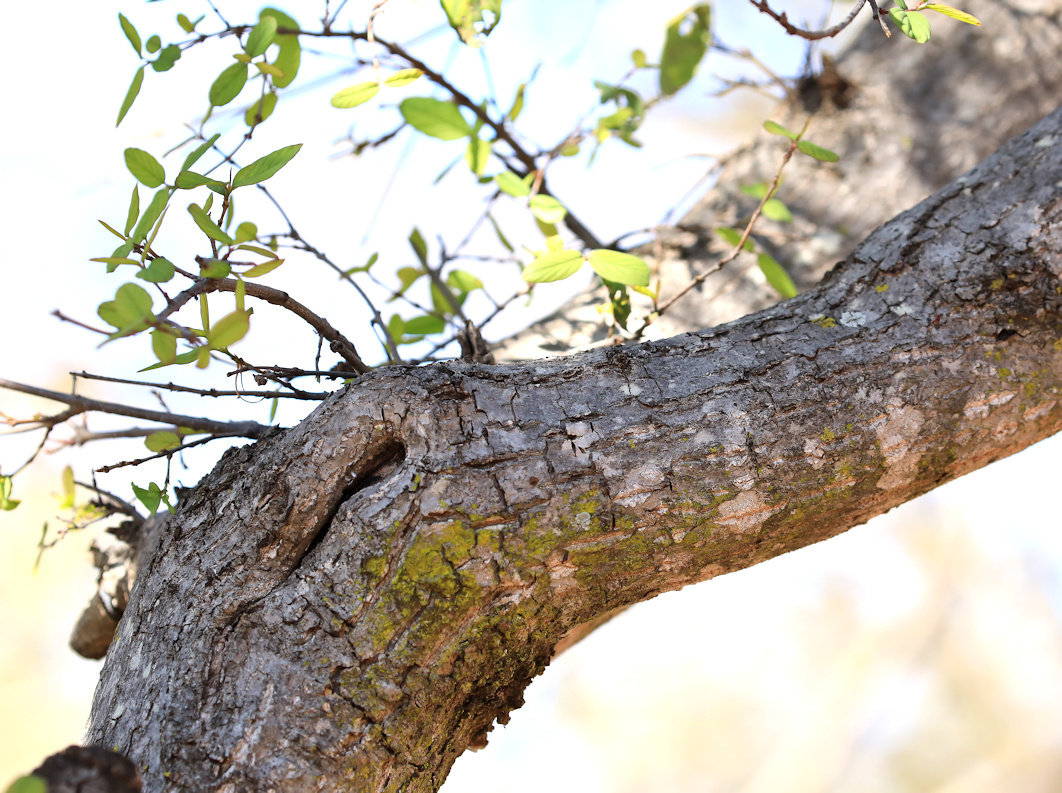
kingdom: Plantae
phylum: Tracheophyta
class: Magnoliopsida
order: Rosales
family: Rhamnaceae
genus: Phyllogeiton
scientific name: Phyllogeiton zeyheri
